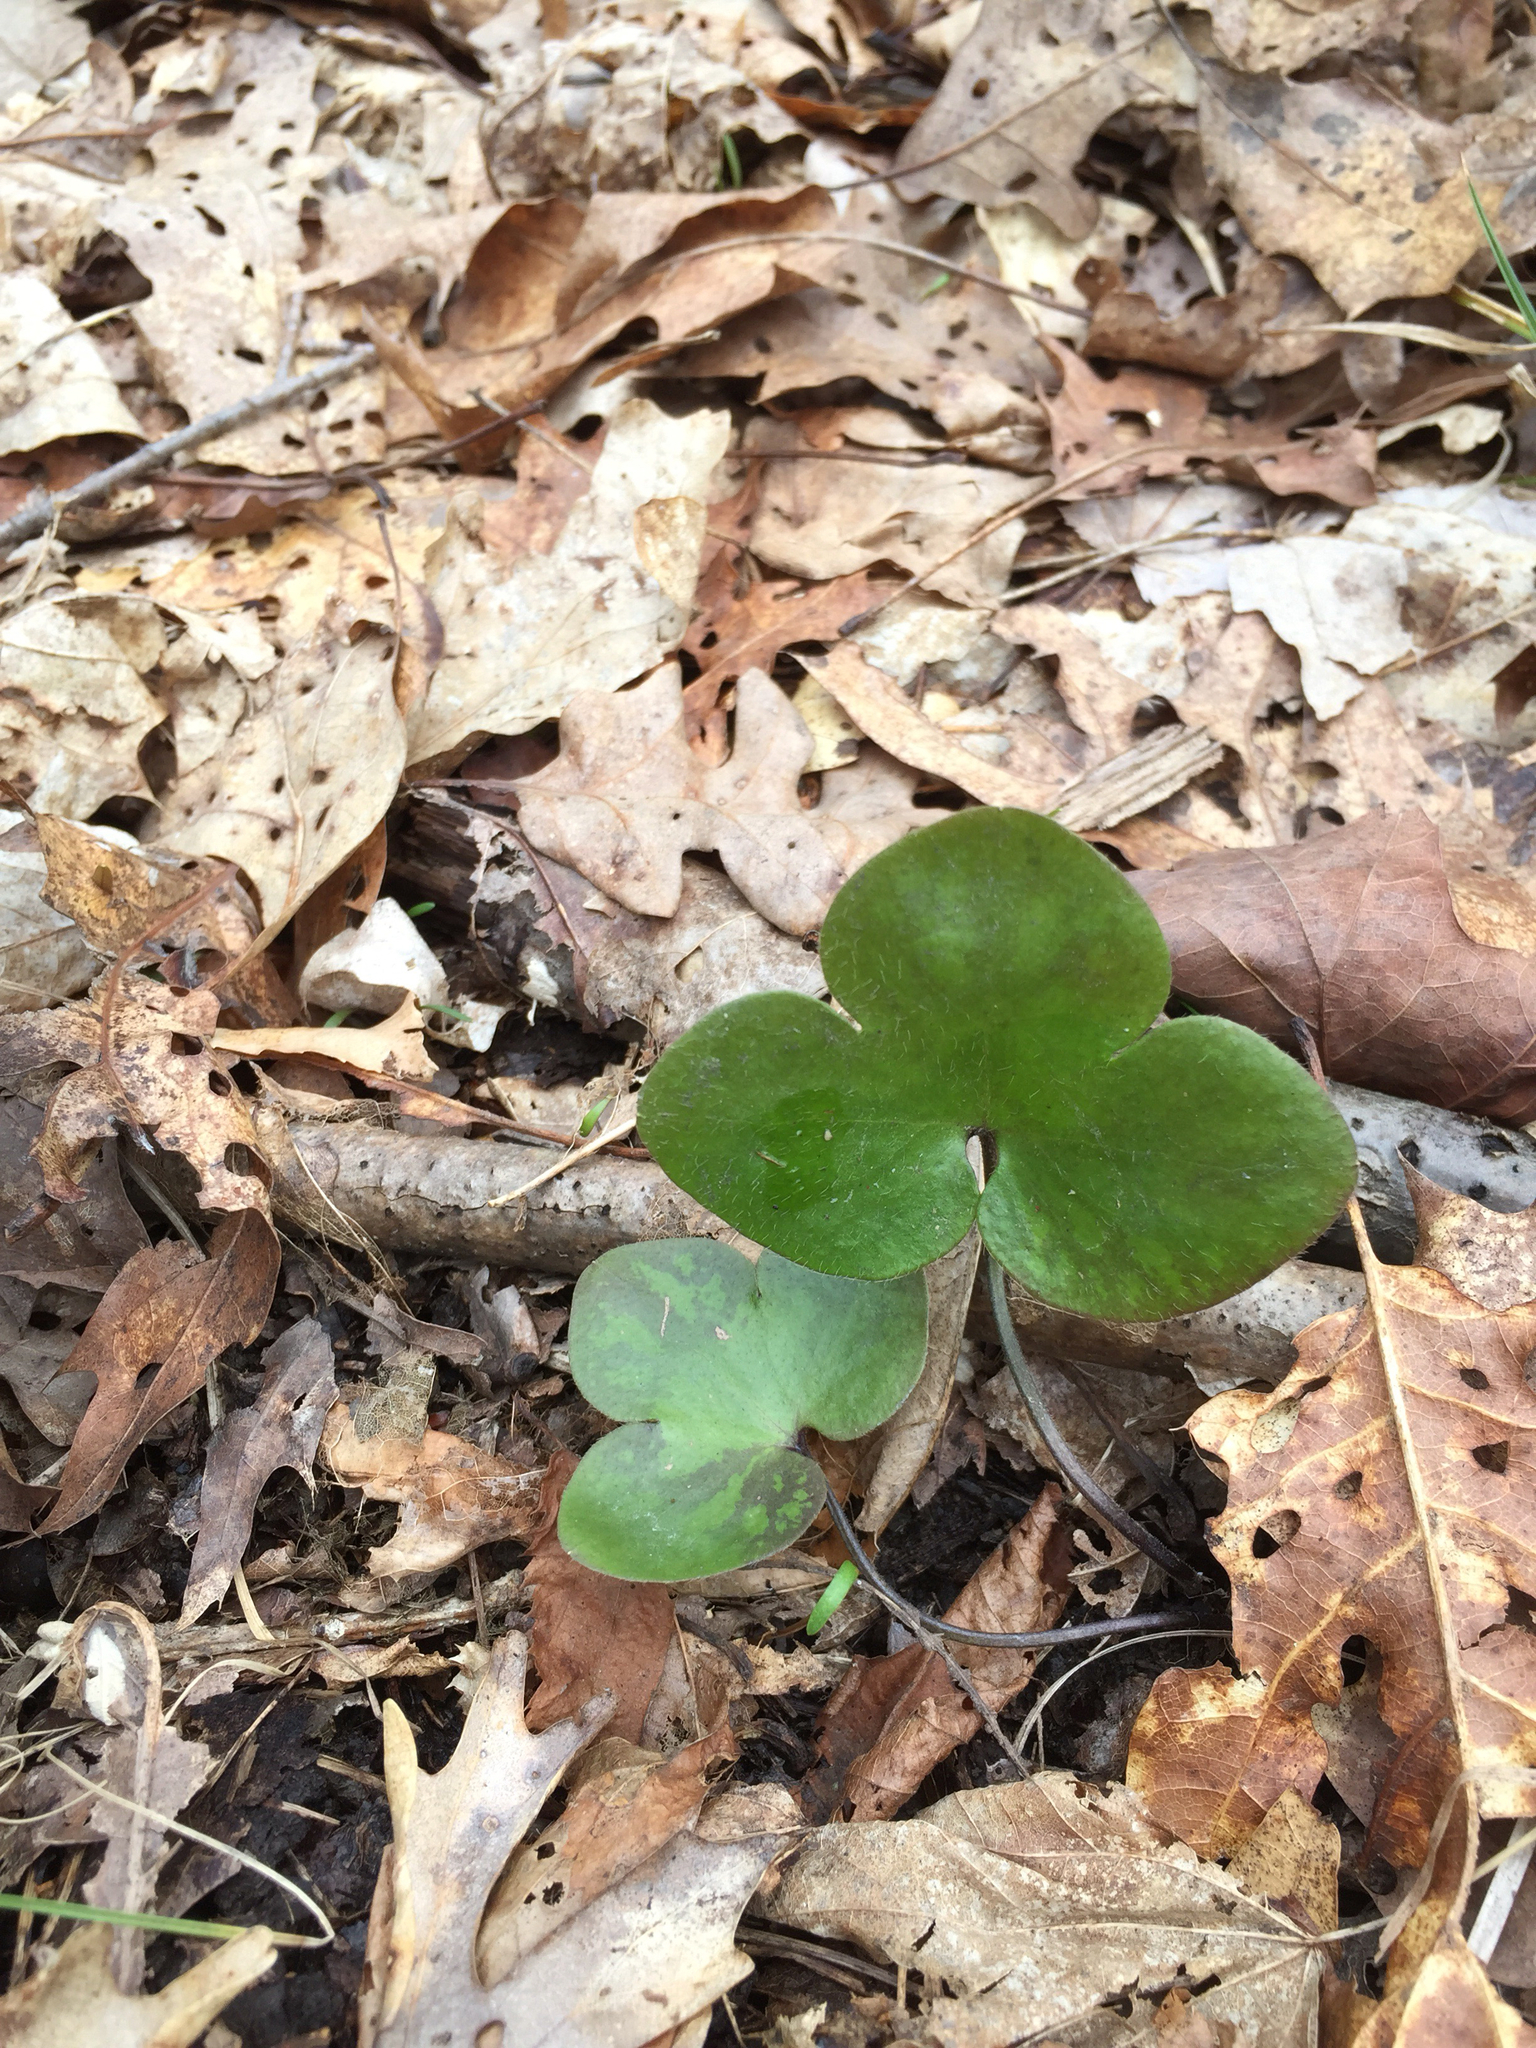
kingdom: Plantae
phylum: Tracheophyta
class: Magnoliopsida
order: Ranunculales
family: Ranunculaceae
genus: Hepatica
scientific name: Hepatica americana
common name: American hepatica
